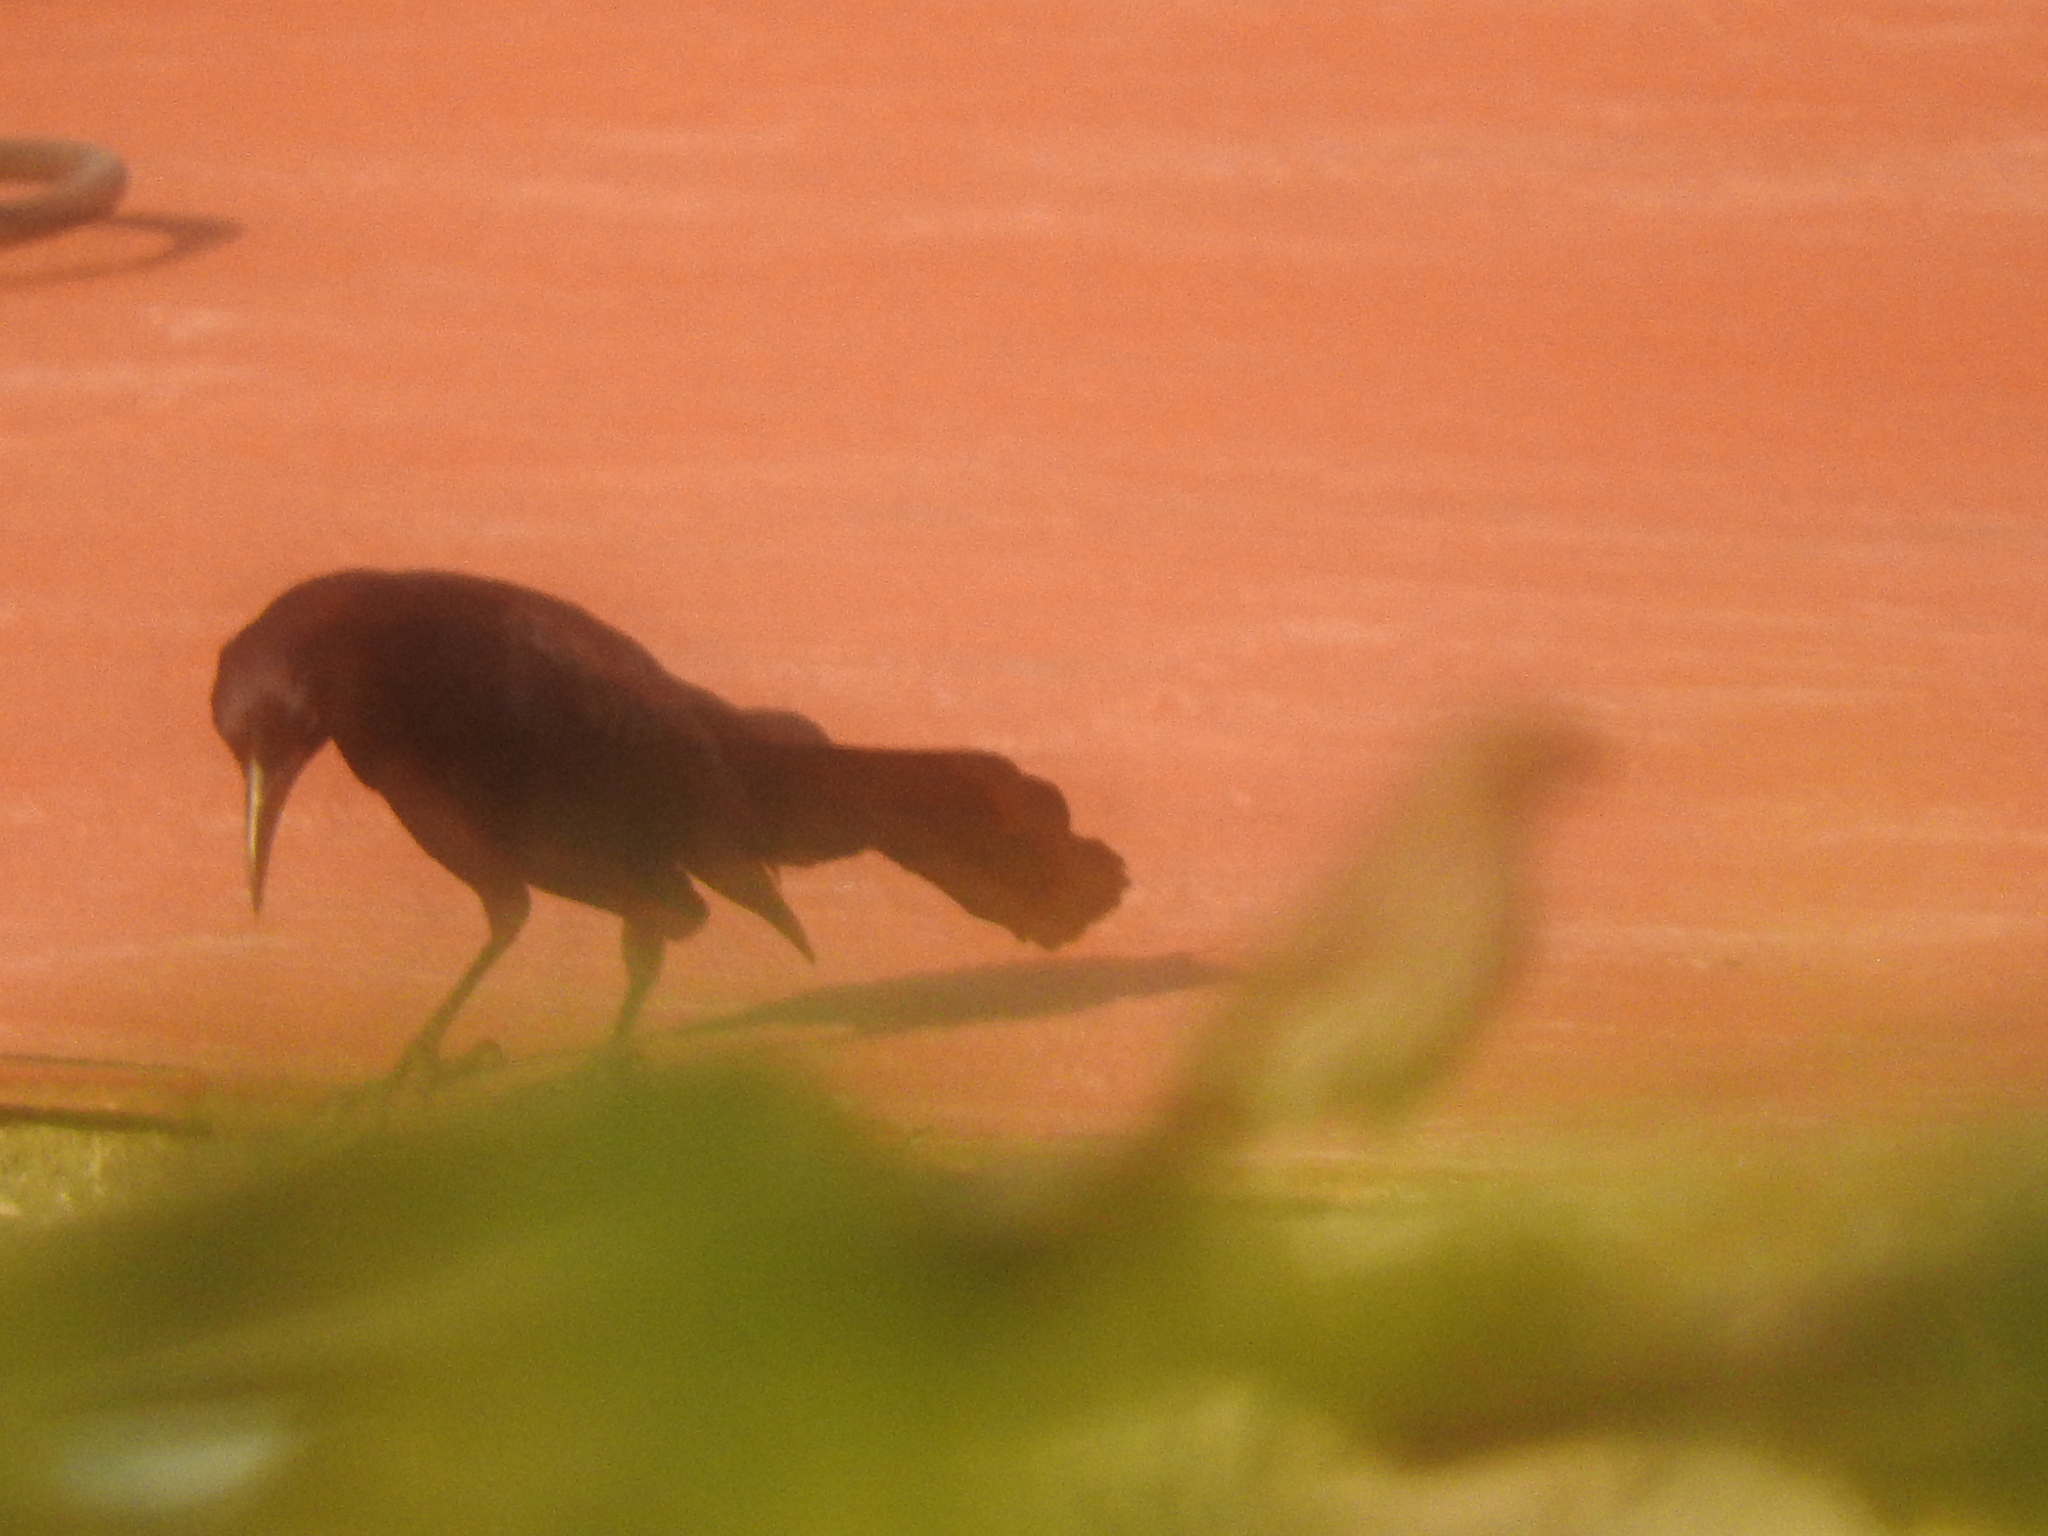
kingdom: Animalia
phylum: Chordata
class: Aves
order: Passeriformes
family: Icteridae
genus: Quiscalus
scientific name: Quiscalus mexicanus
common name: Great-tailed grackle
